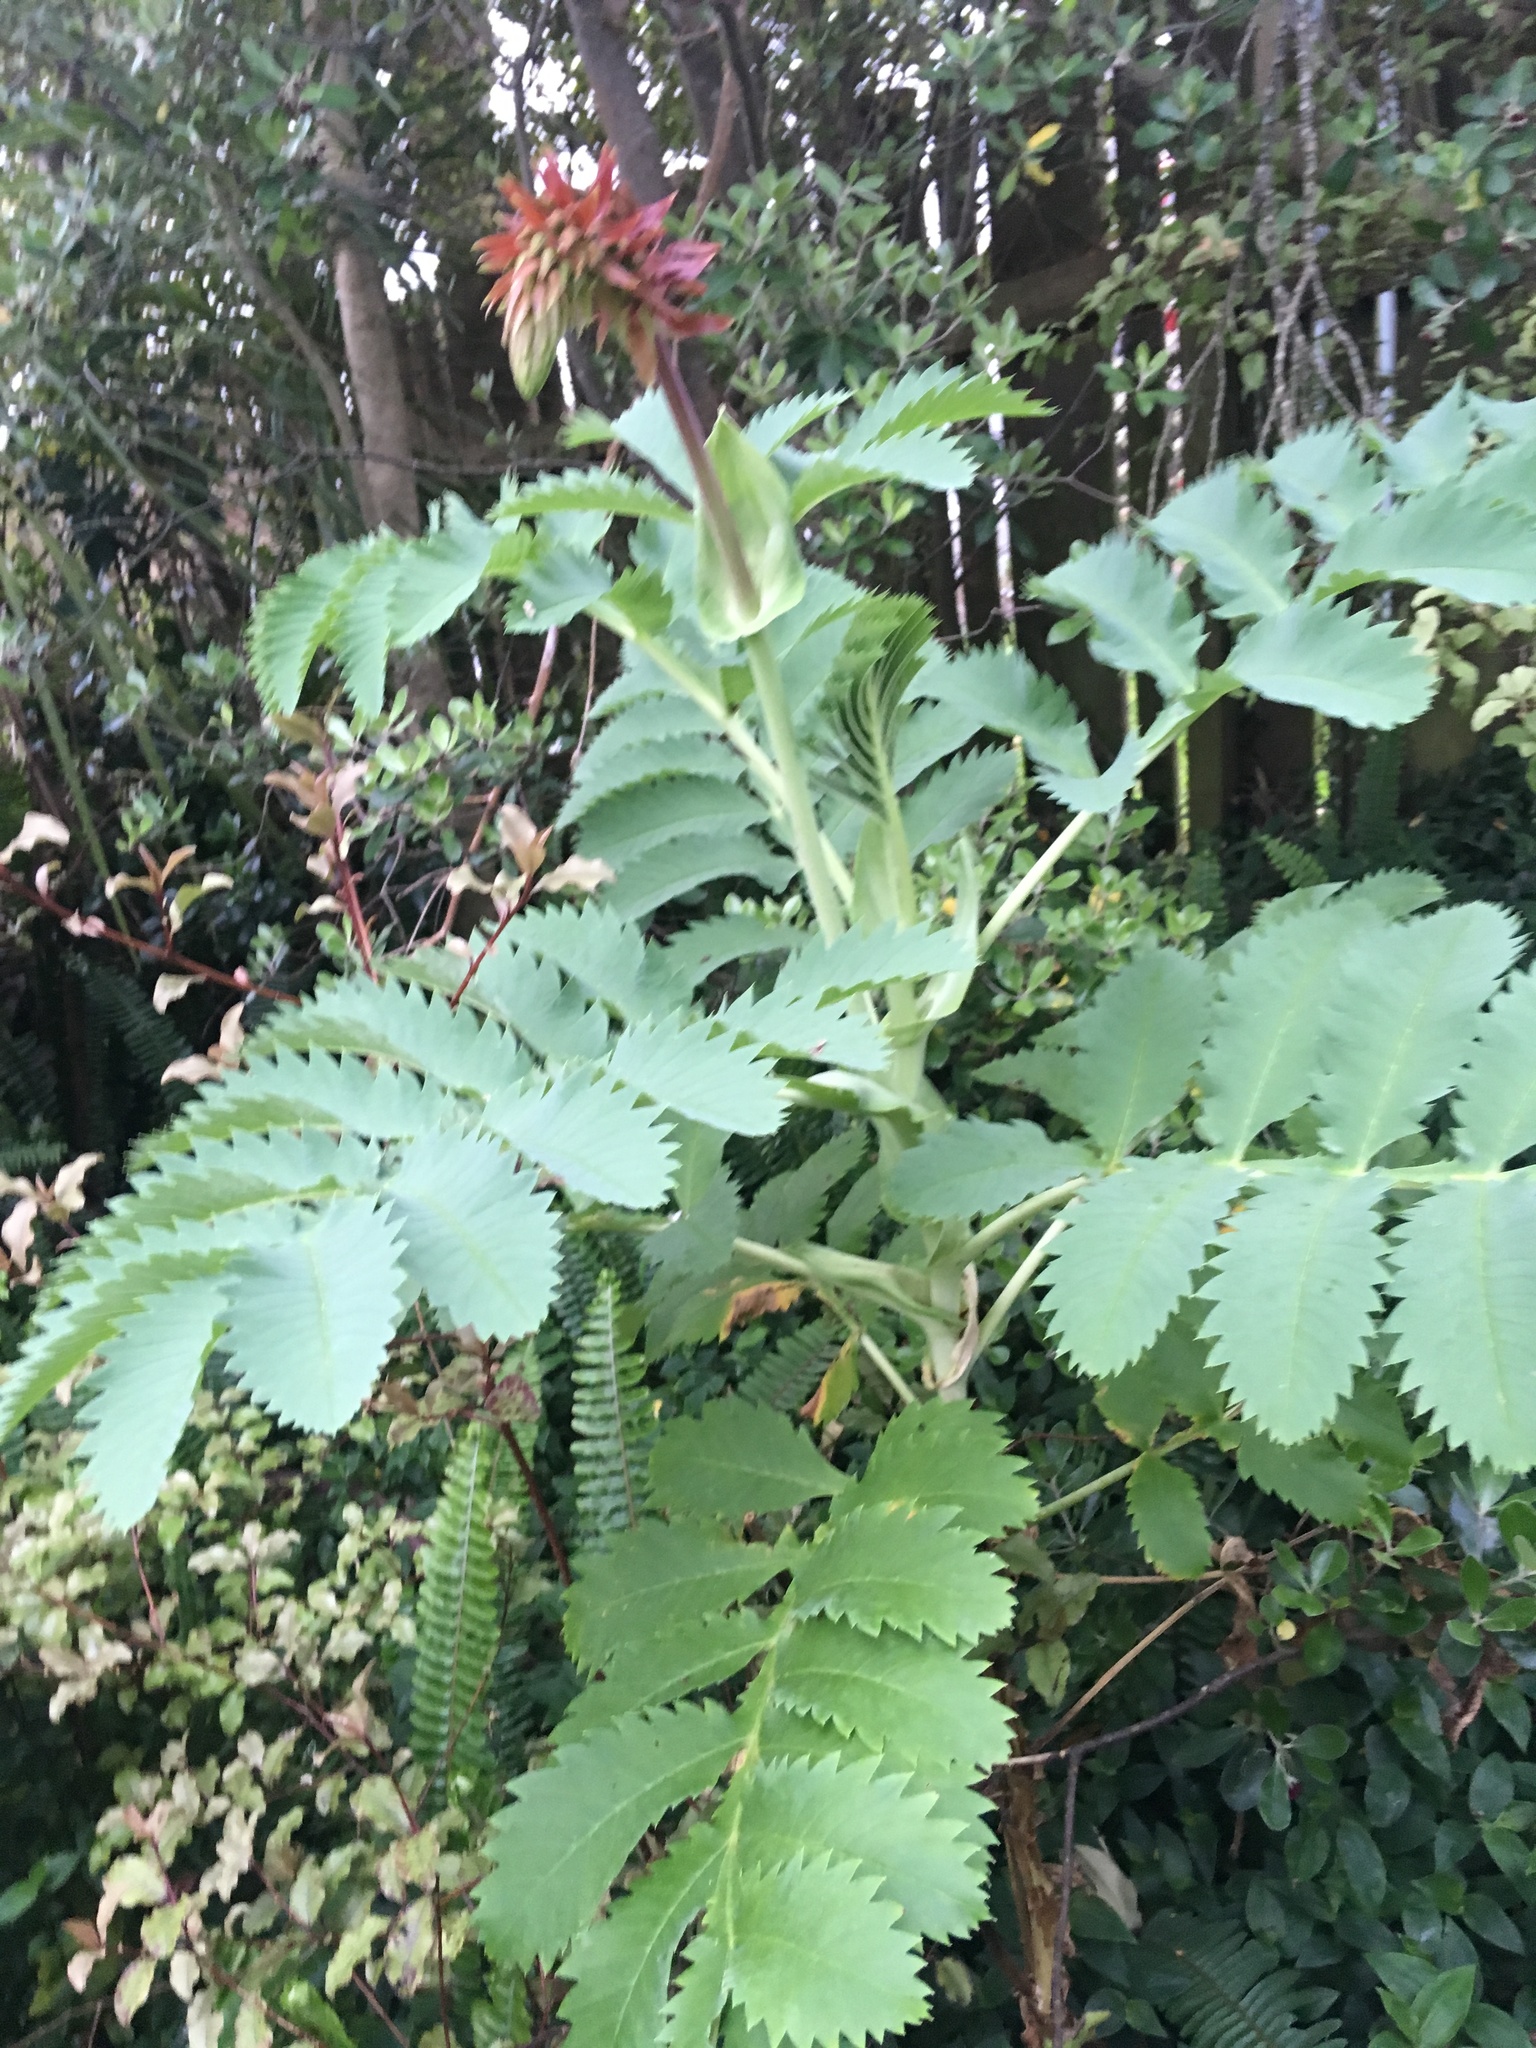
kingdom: Plantae
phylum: Tracheophyta
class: Magnoliopsida
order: Geraniales
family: Melianthaceae
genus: Melianthus
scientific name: Melianthus major
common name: Honey-flower
